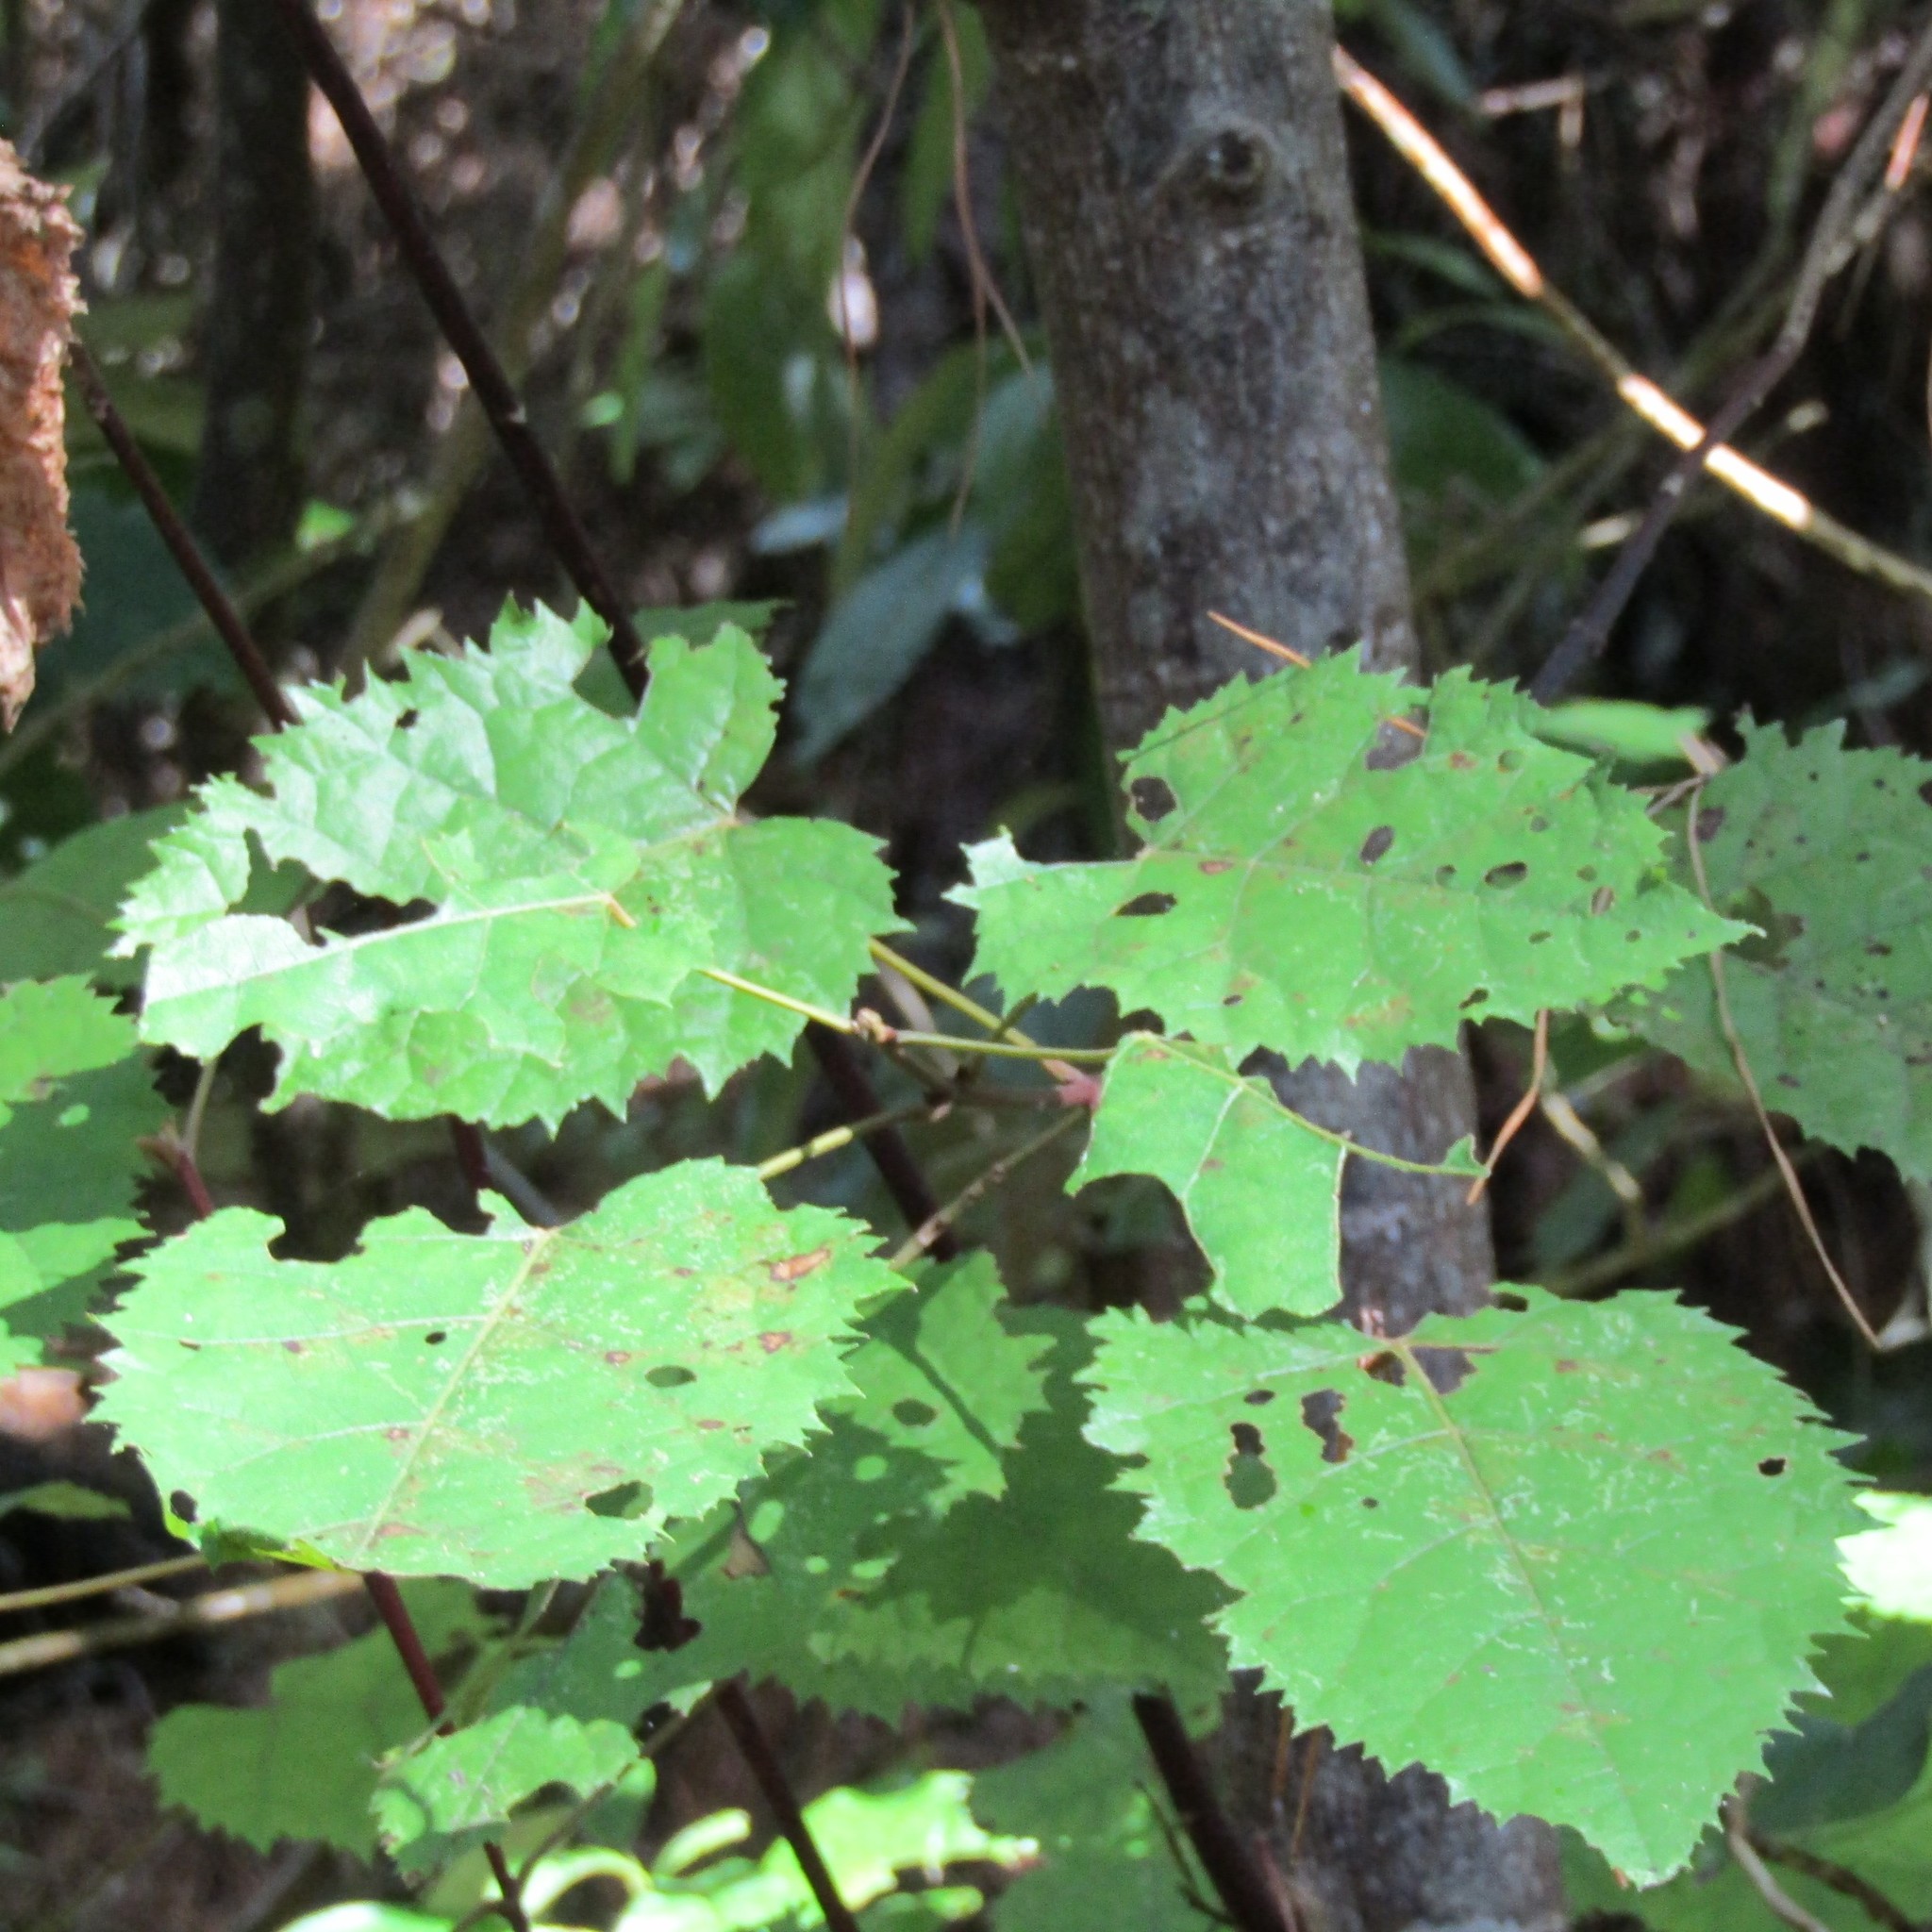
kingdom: Plantae
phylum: Tracheophyta
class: Magnoliopsida
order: Oxalidales
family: Elaeocarpaceae
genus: Aristotelia
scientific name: Aristotelia serrata
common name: New zealand wineberry
